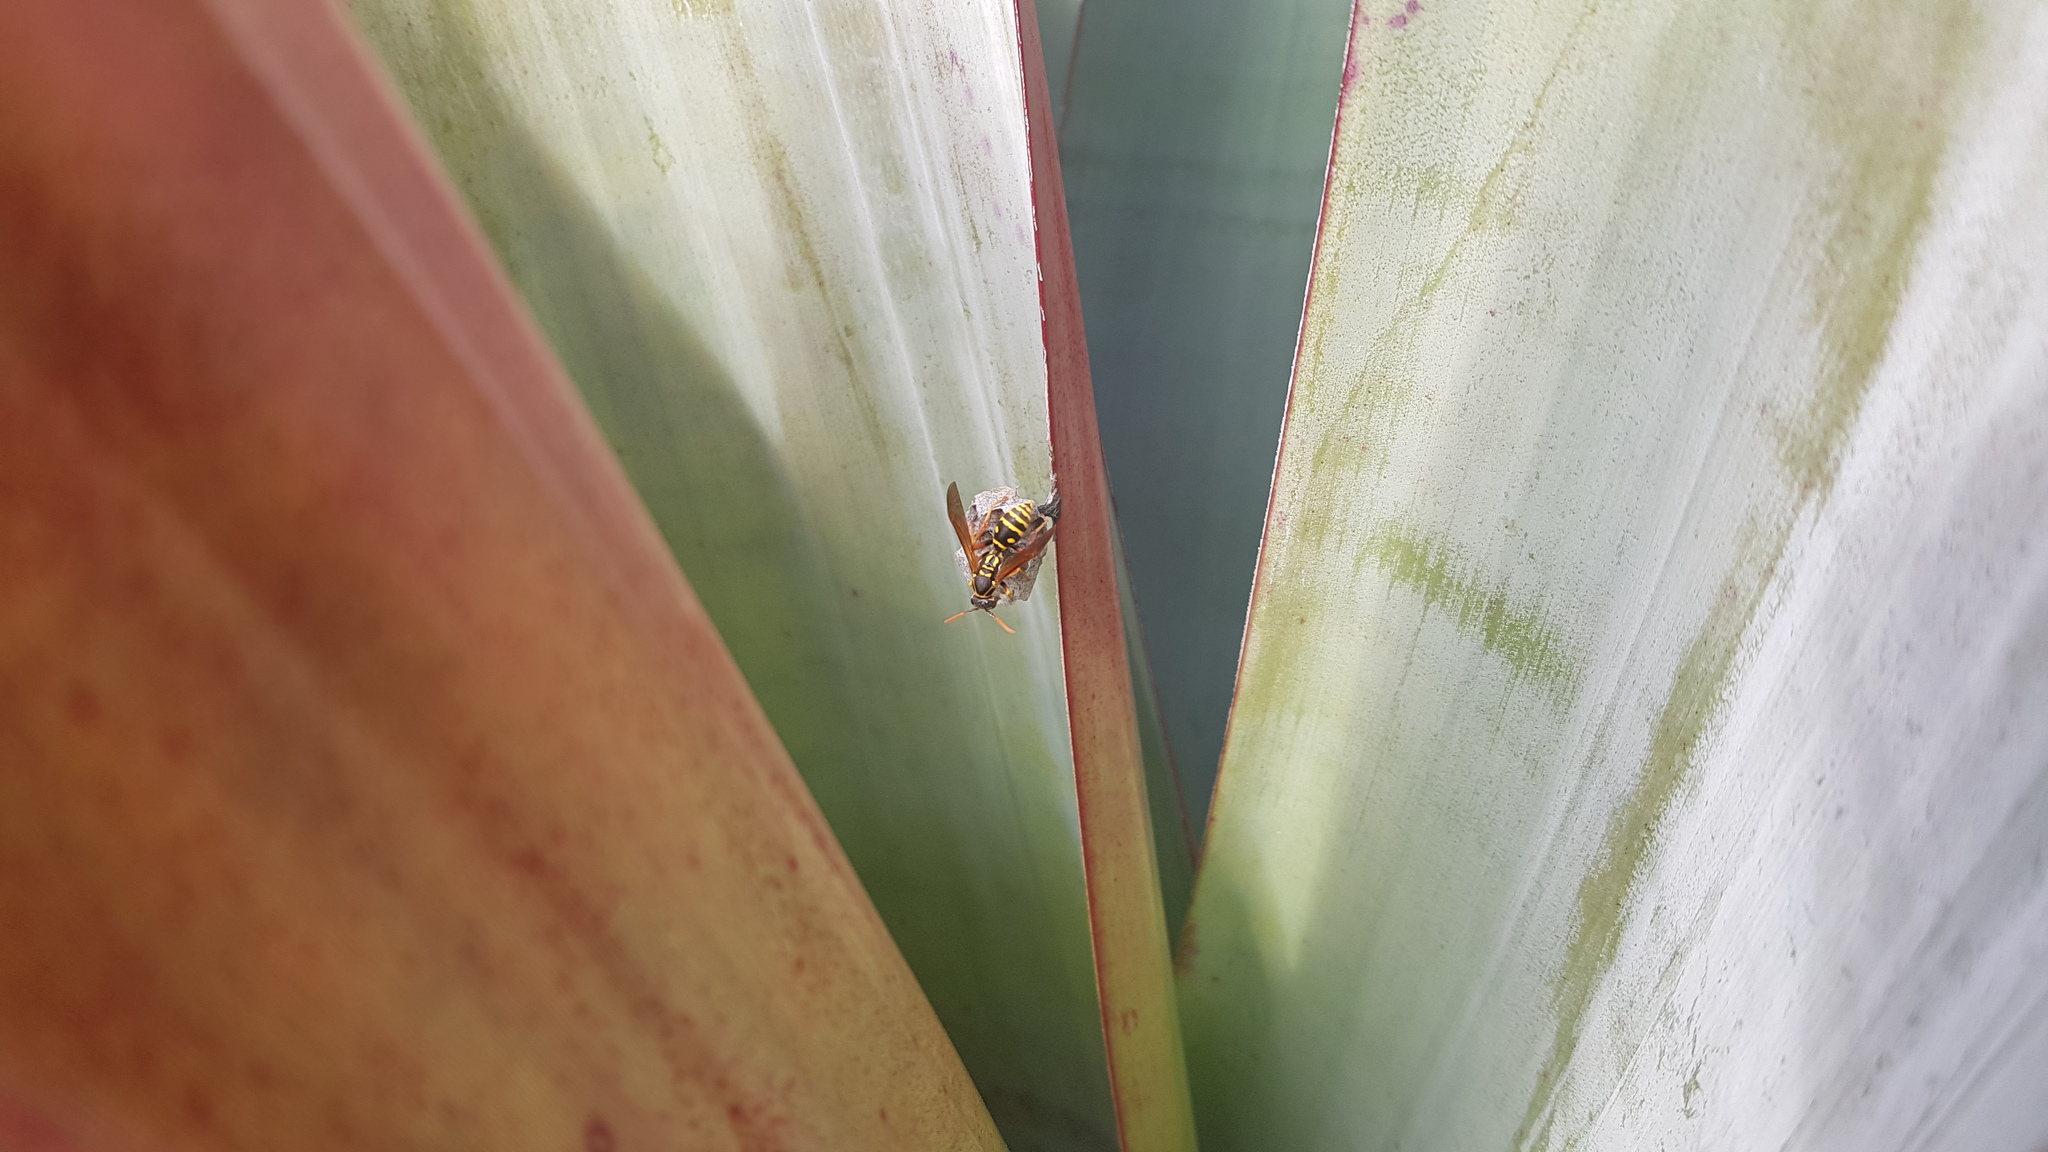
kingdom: Animalia
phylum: Arthropoda
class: Insecta
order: Hymenoptera
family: Eumenidae
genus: Polistes
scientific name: Polistes chinensis
